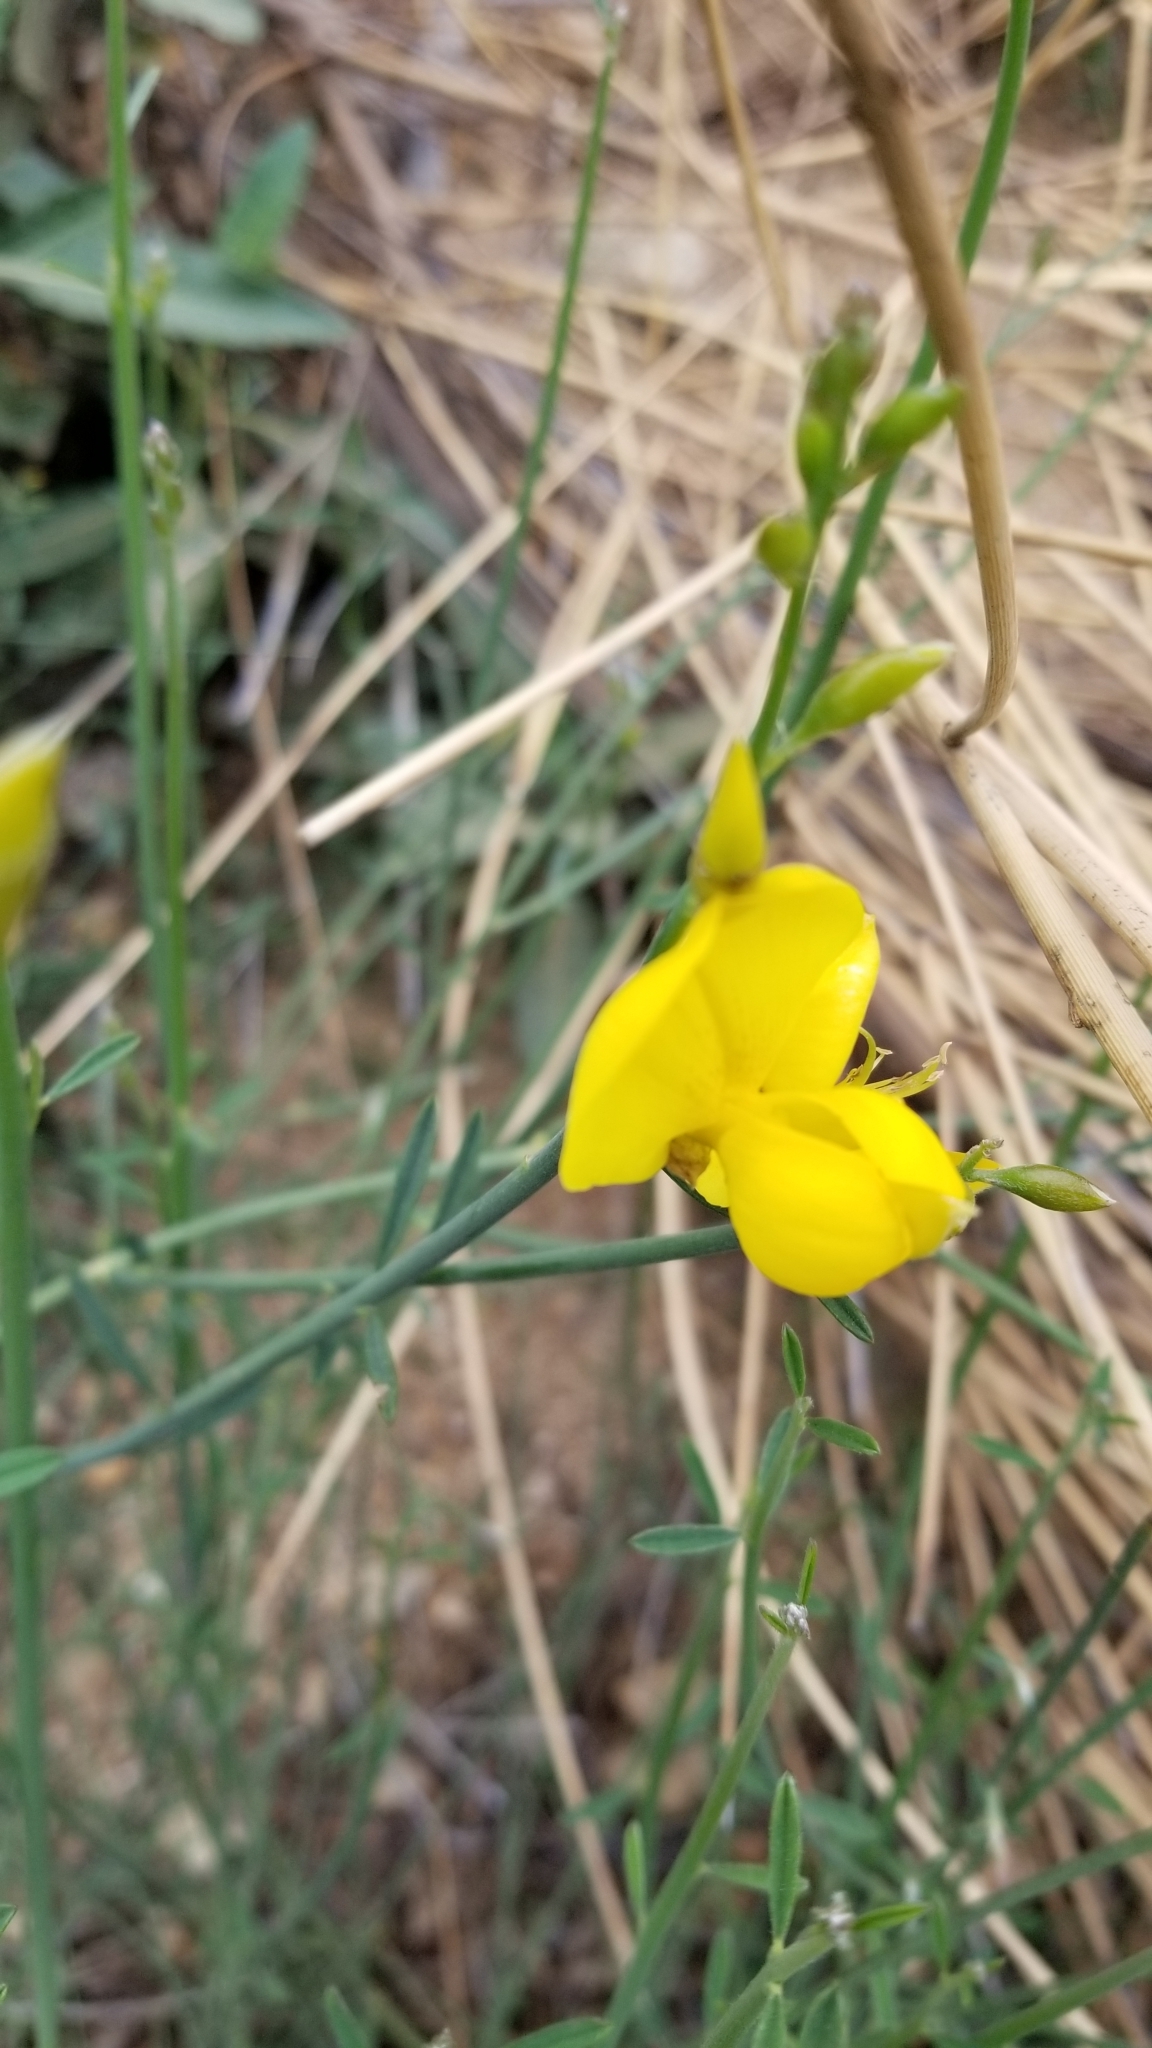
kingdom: Plantae
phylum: Tracheophyta
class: Magnoliopsida
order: Fabales
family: Fabaceae
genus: Spartium
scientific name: Spartium junceum
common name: Spanish broom
